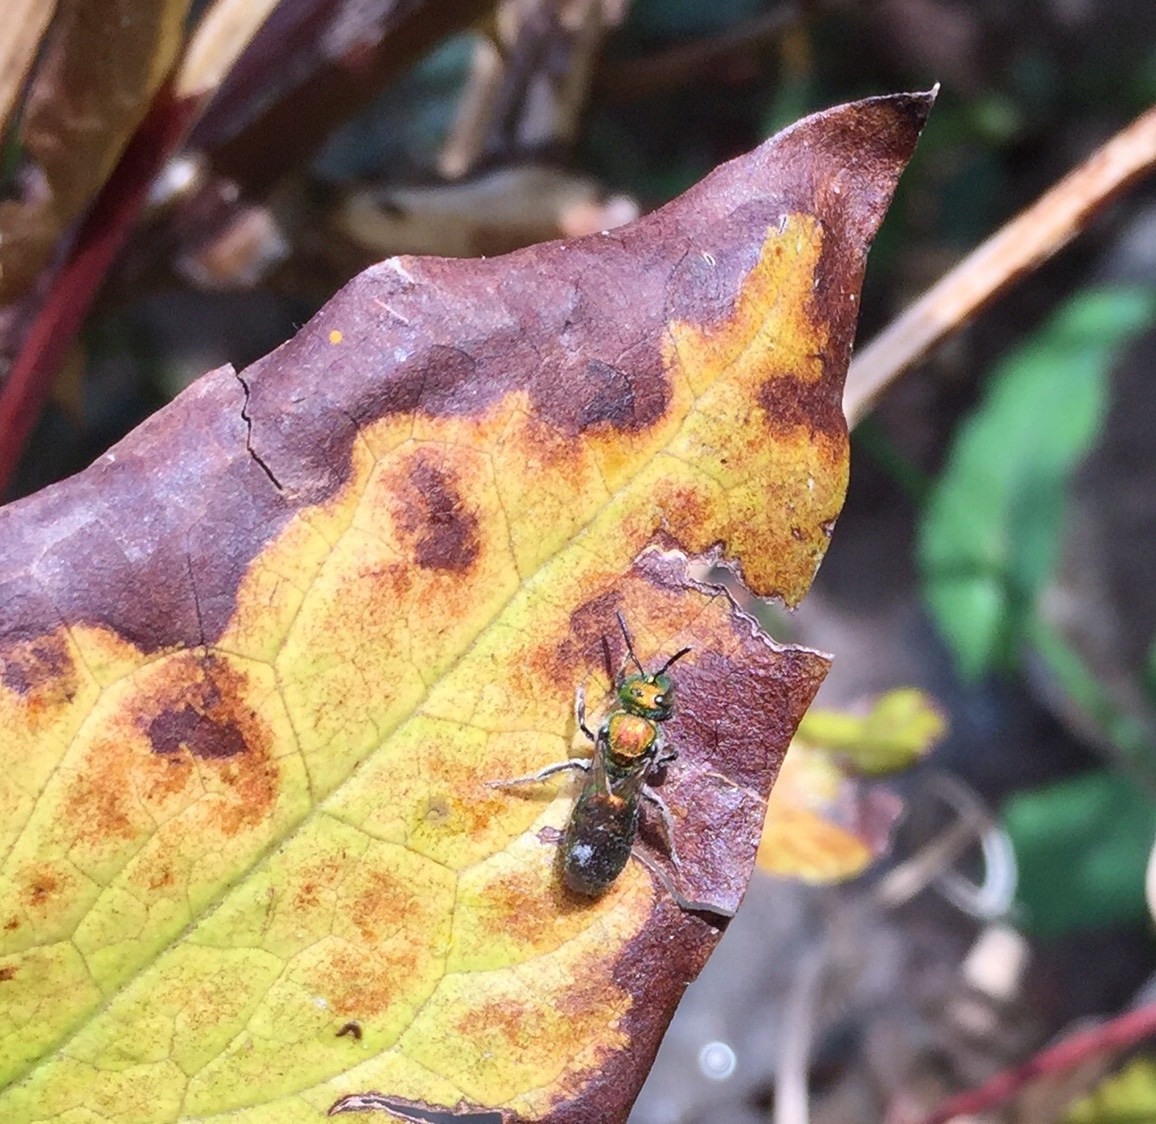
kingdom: Animalia
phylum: Arthropoda
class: Insecta
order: Hymenoptera
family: Halictidae
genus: Augochlora
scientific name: Augochlora pura
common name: Pure green sweat bee
